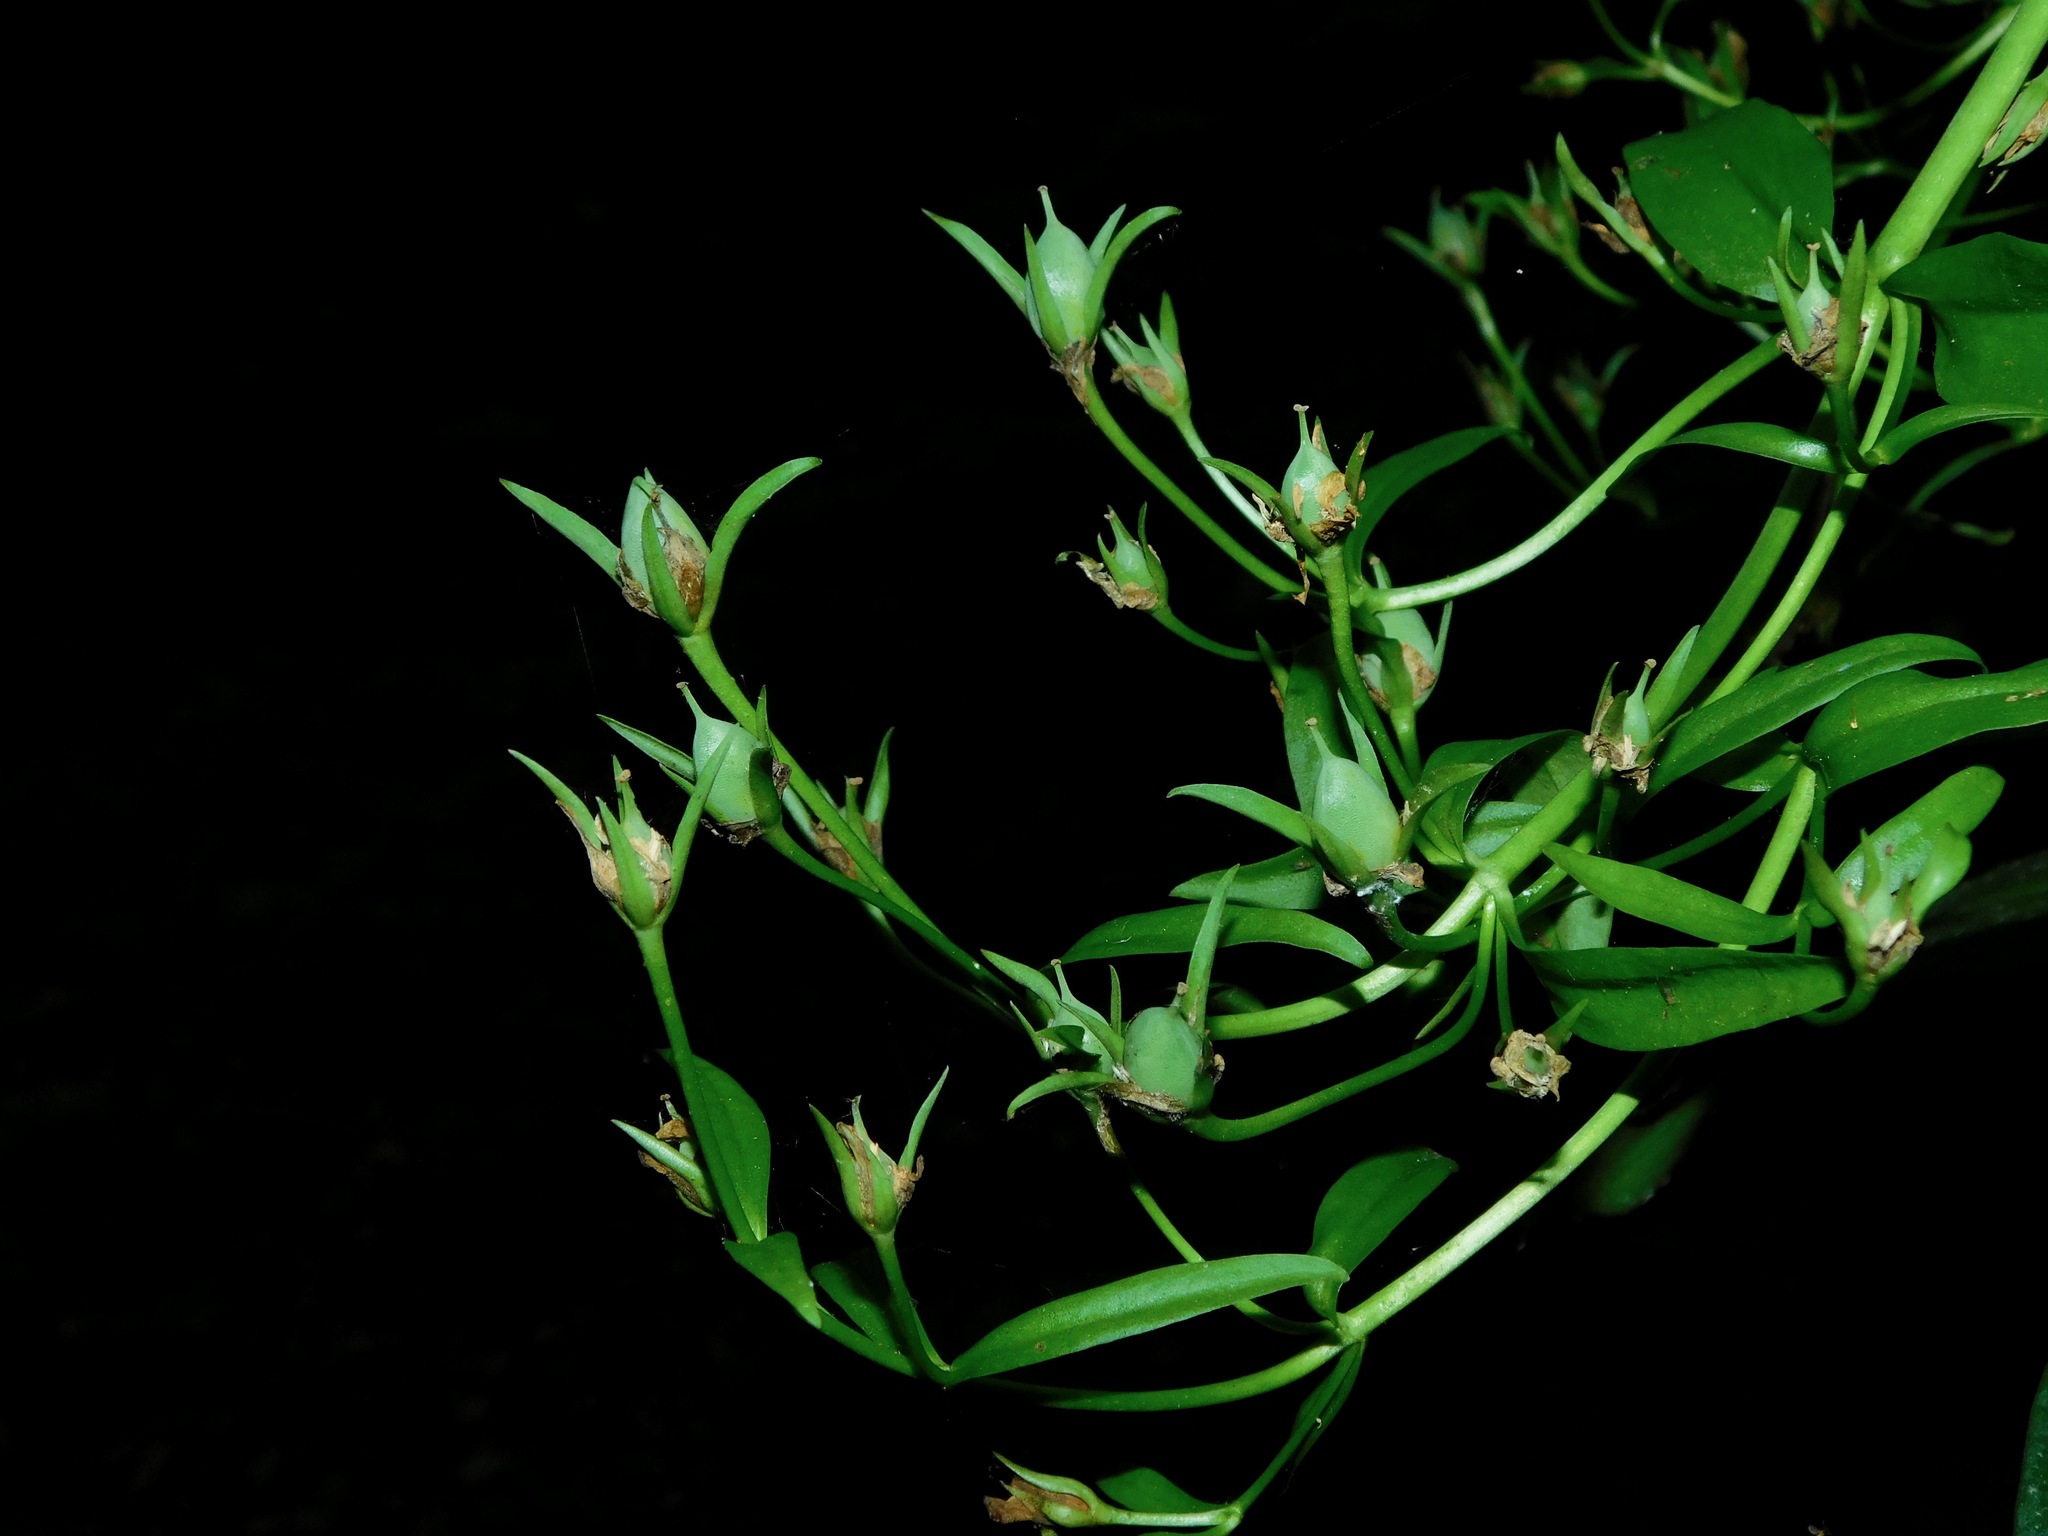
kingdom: Plantae
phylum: Tracheophyta
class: Magnoliopsida
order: Gentianales
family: Gentianaceae
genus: Frasera
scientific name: Frasera caroliniensis
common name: American columbo
